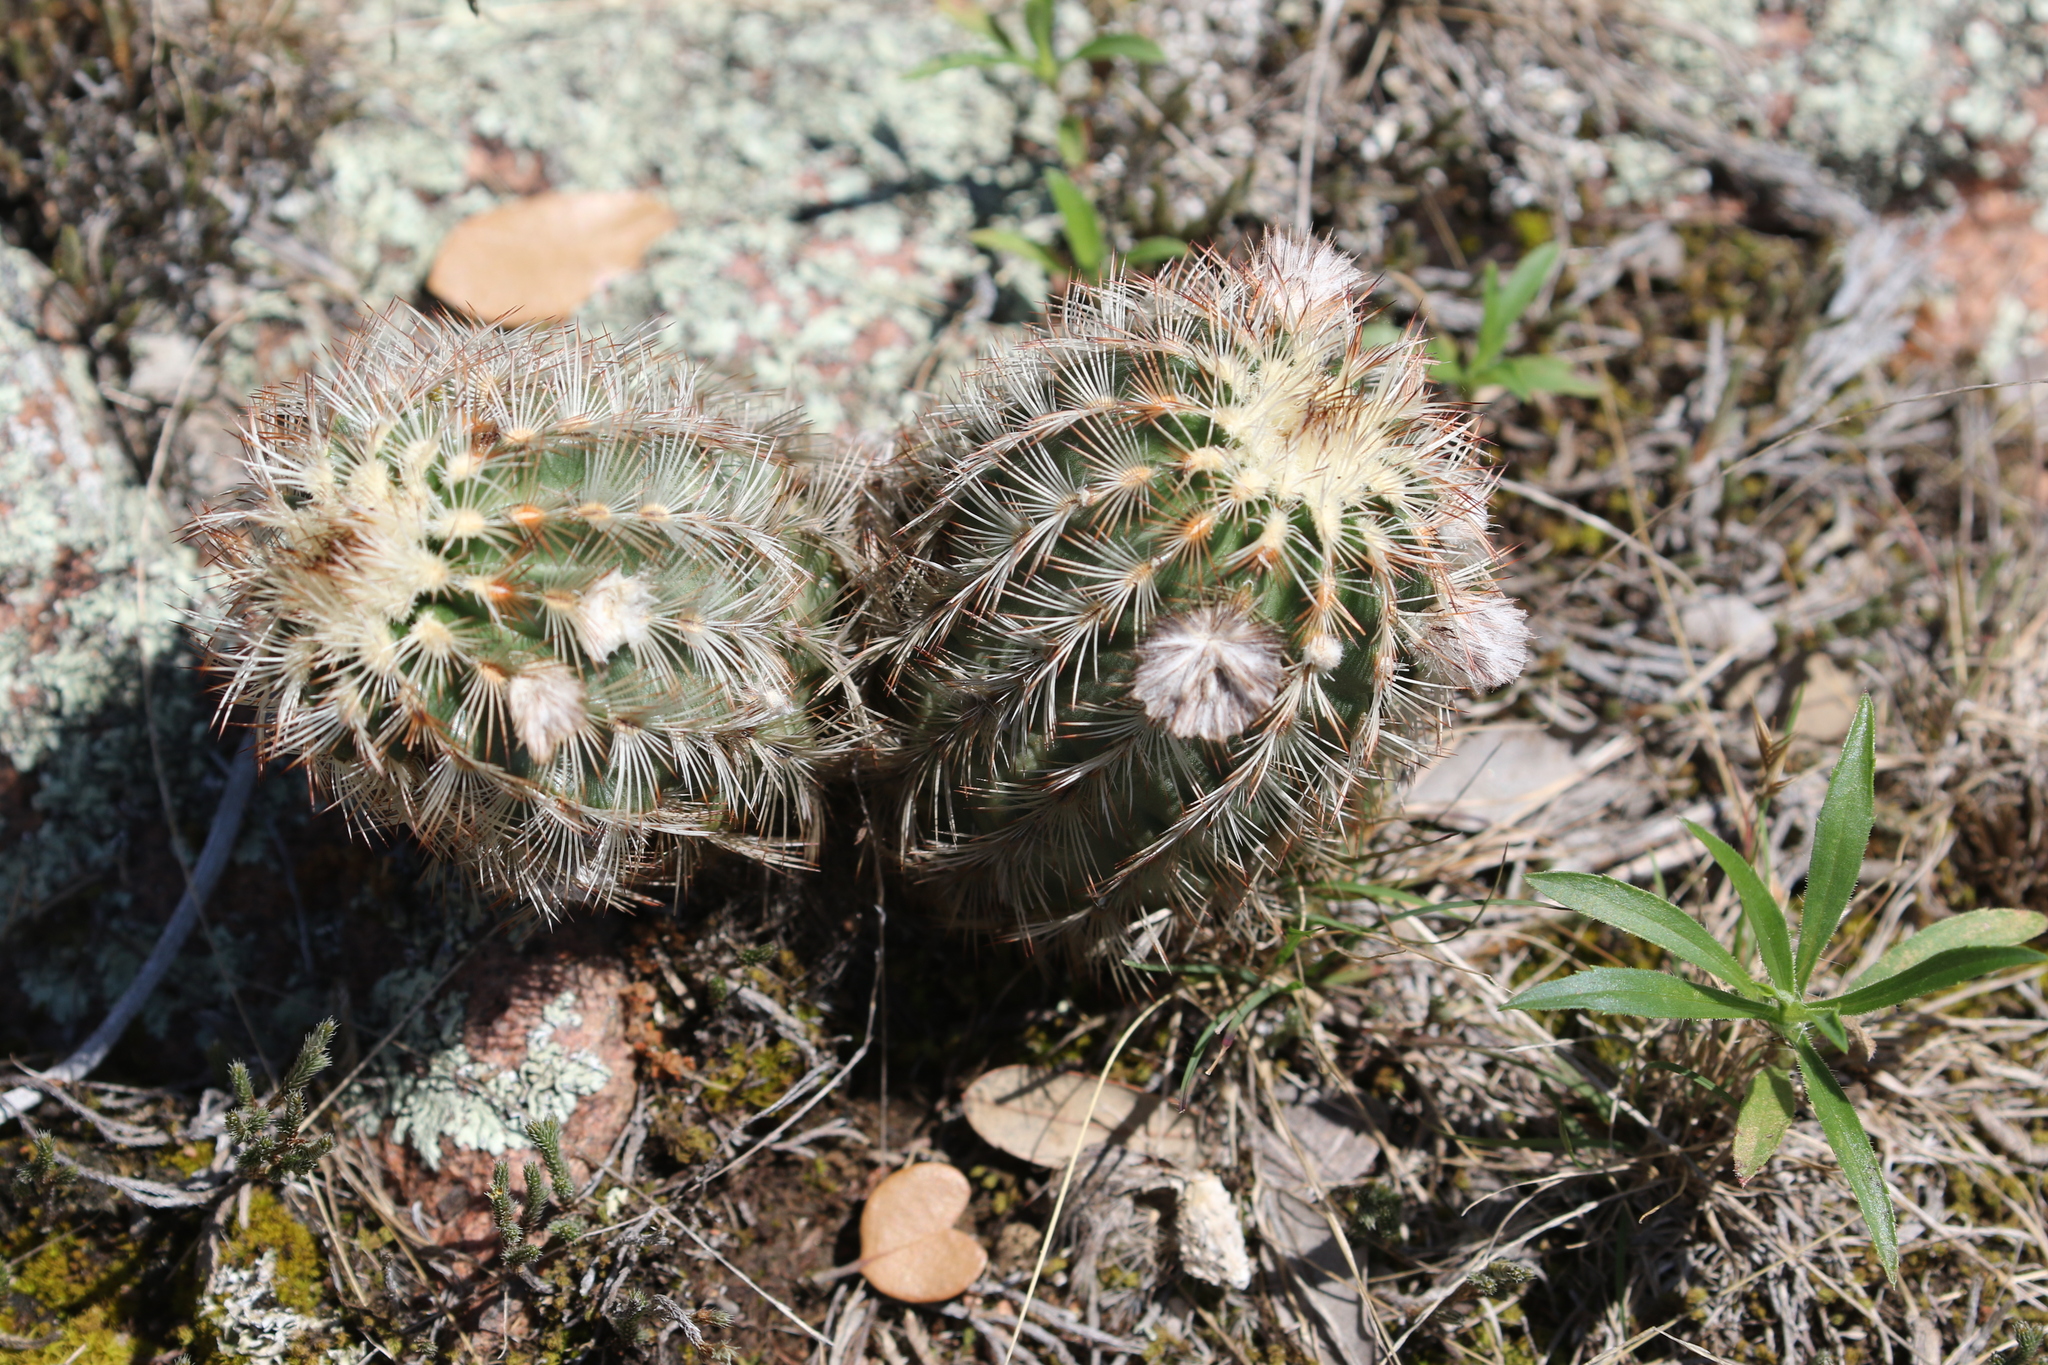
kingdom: Plantae
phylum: Tracheophyta
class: Magnoliopsida
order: Caryophyllales
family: Cactaceae
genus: Echinocereus
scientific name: Echinocereus reichenbachii
